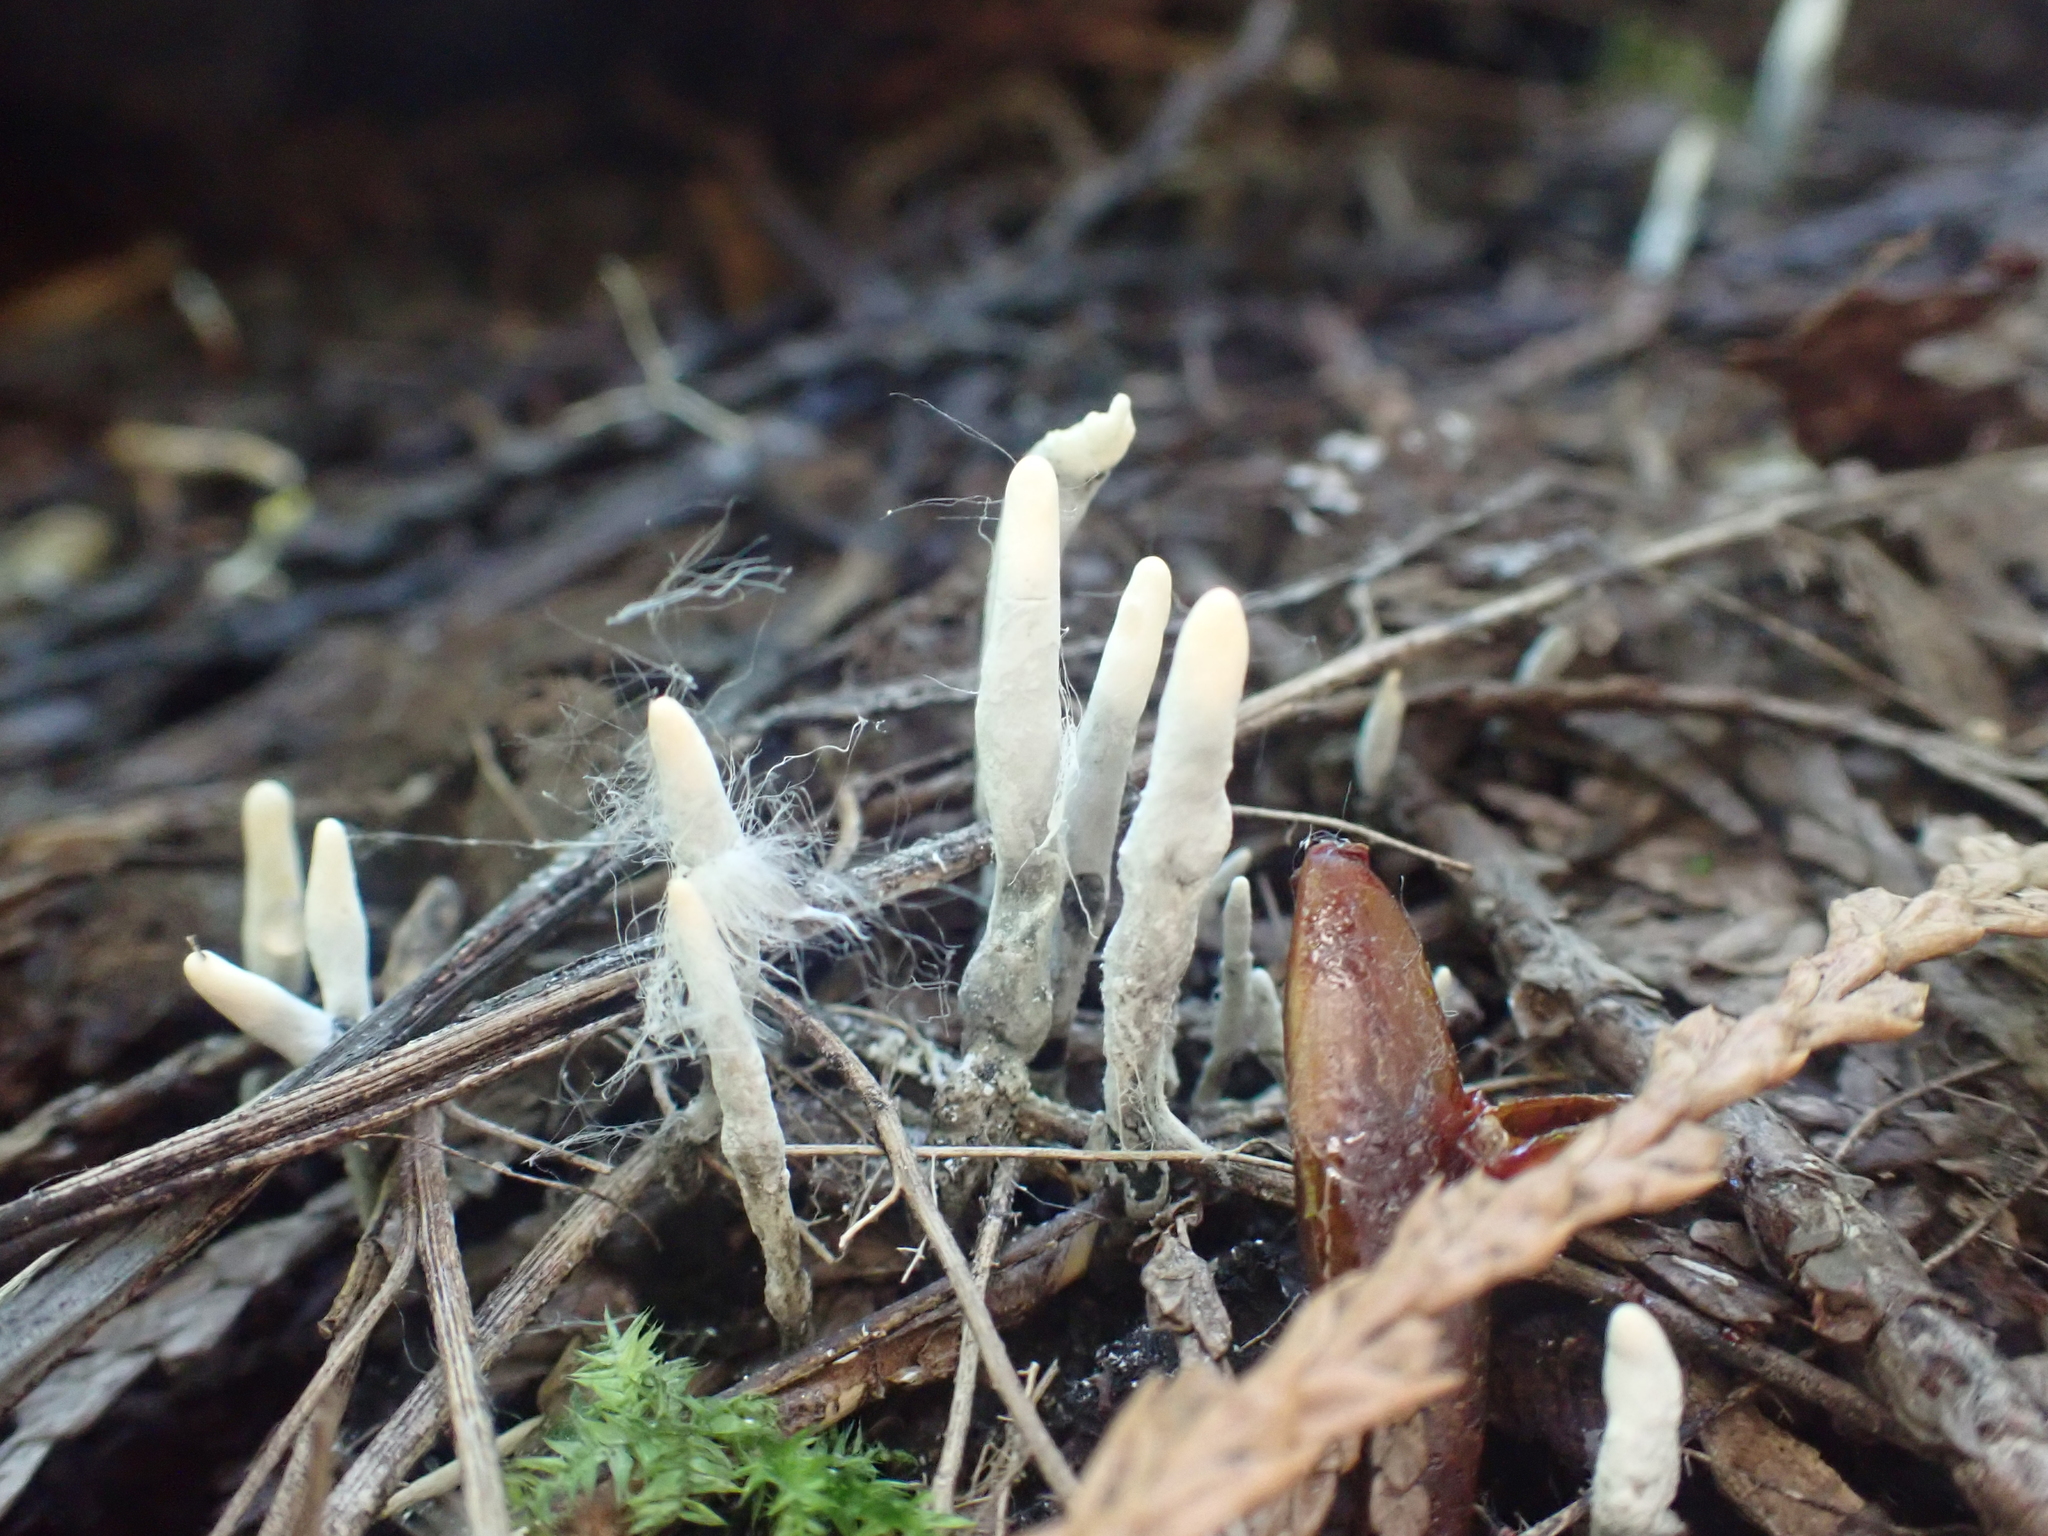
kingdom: Fungi
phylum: Ascomycota
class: Sordariomycetes
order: Xylariales
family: Xylariaceae
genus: Xylaria
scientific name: Xylaria hypoxylon
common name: Candle-snuff fungus
